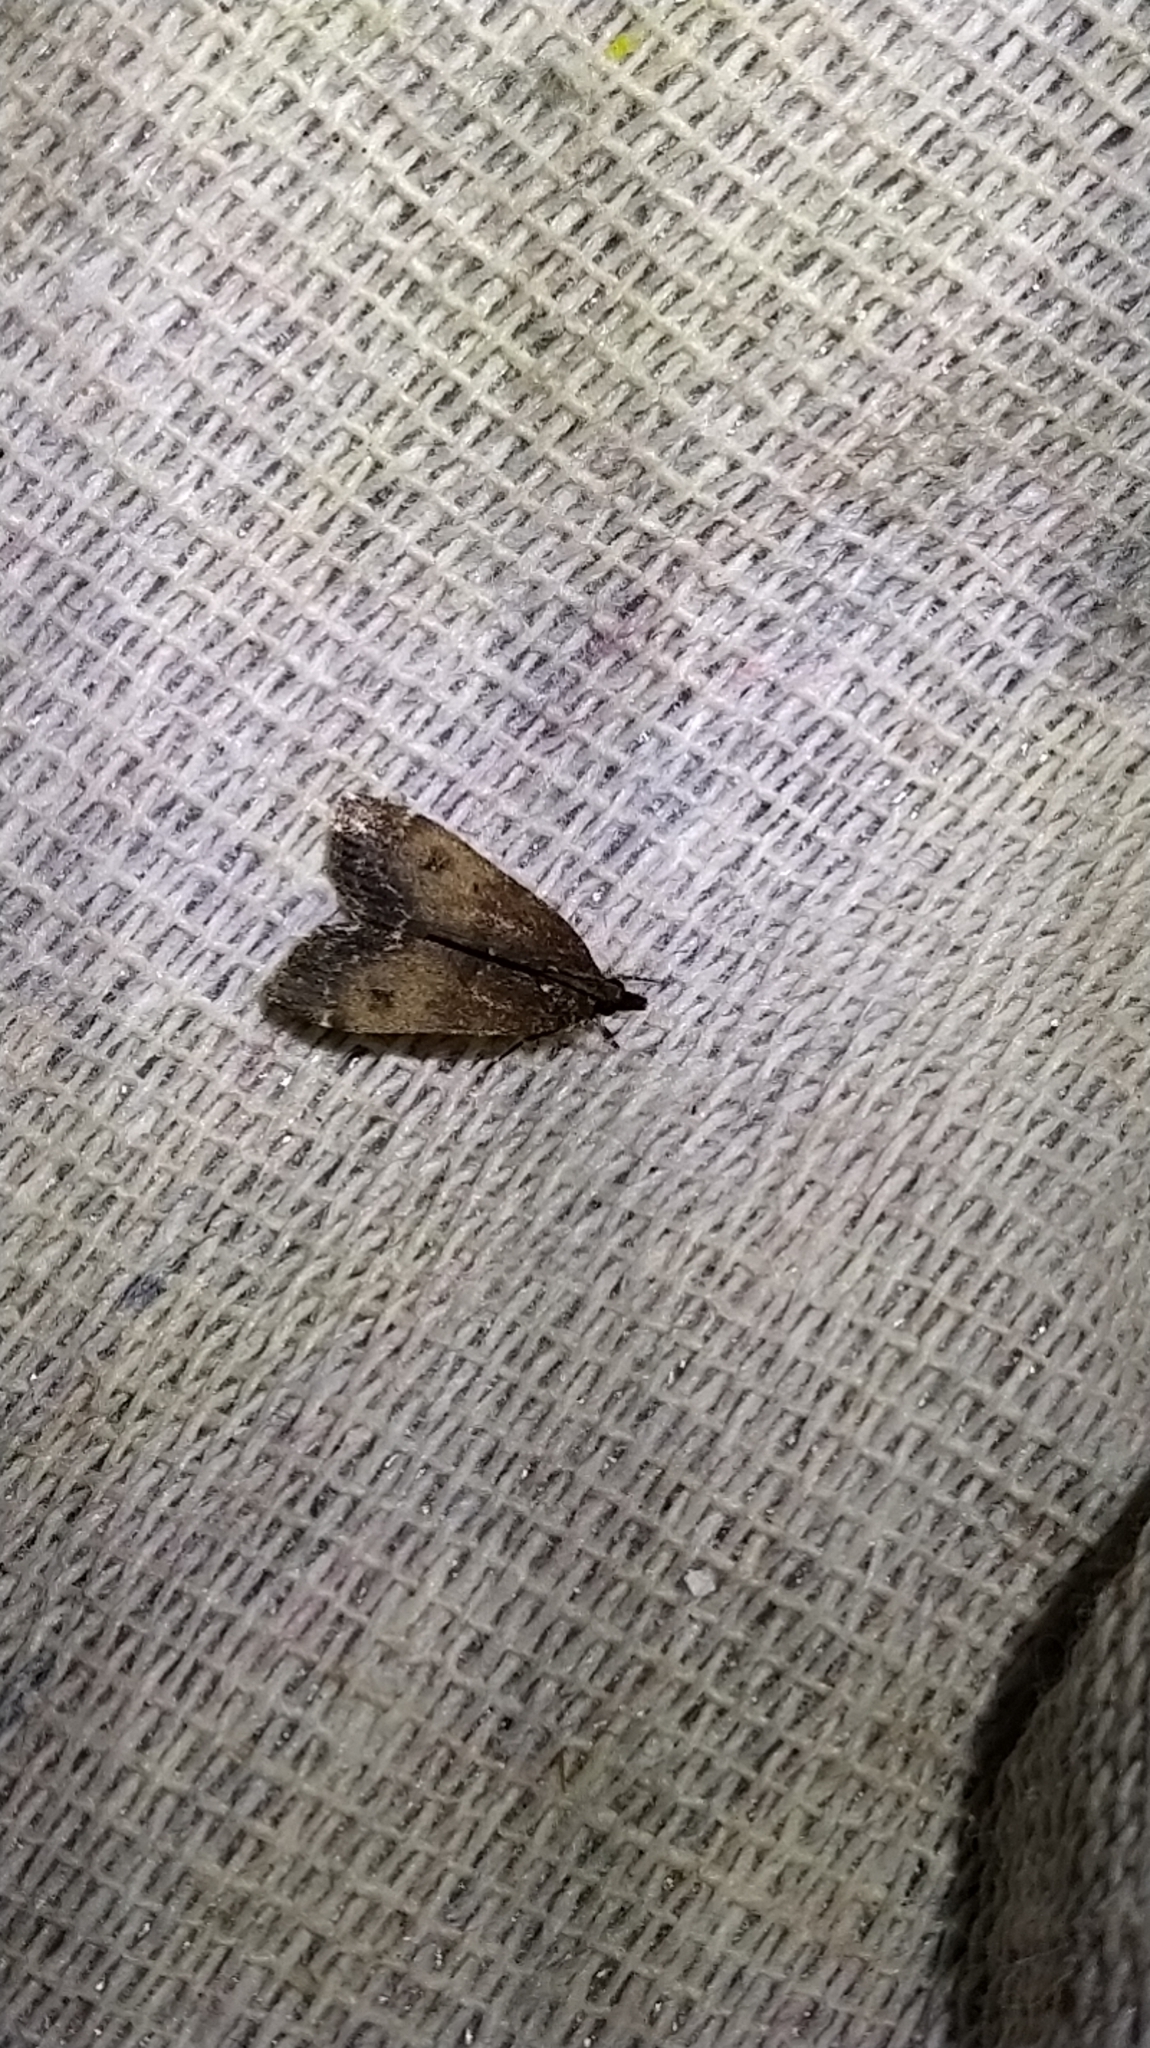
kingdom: Animalia
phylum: Arthropoda
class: Insecta
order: Lepidoptera
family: Crambidae
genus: Eudonia
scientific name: Eudonia asterisca
